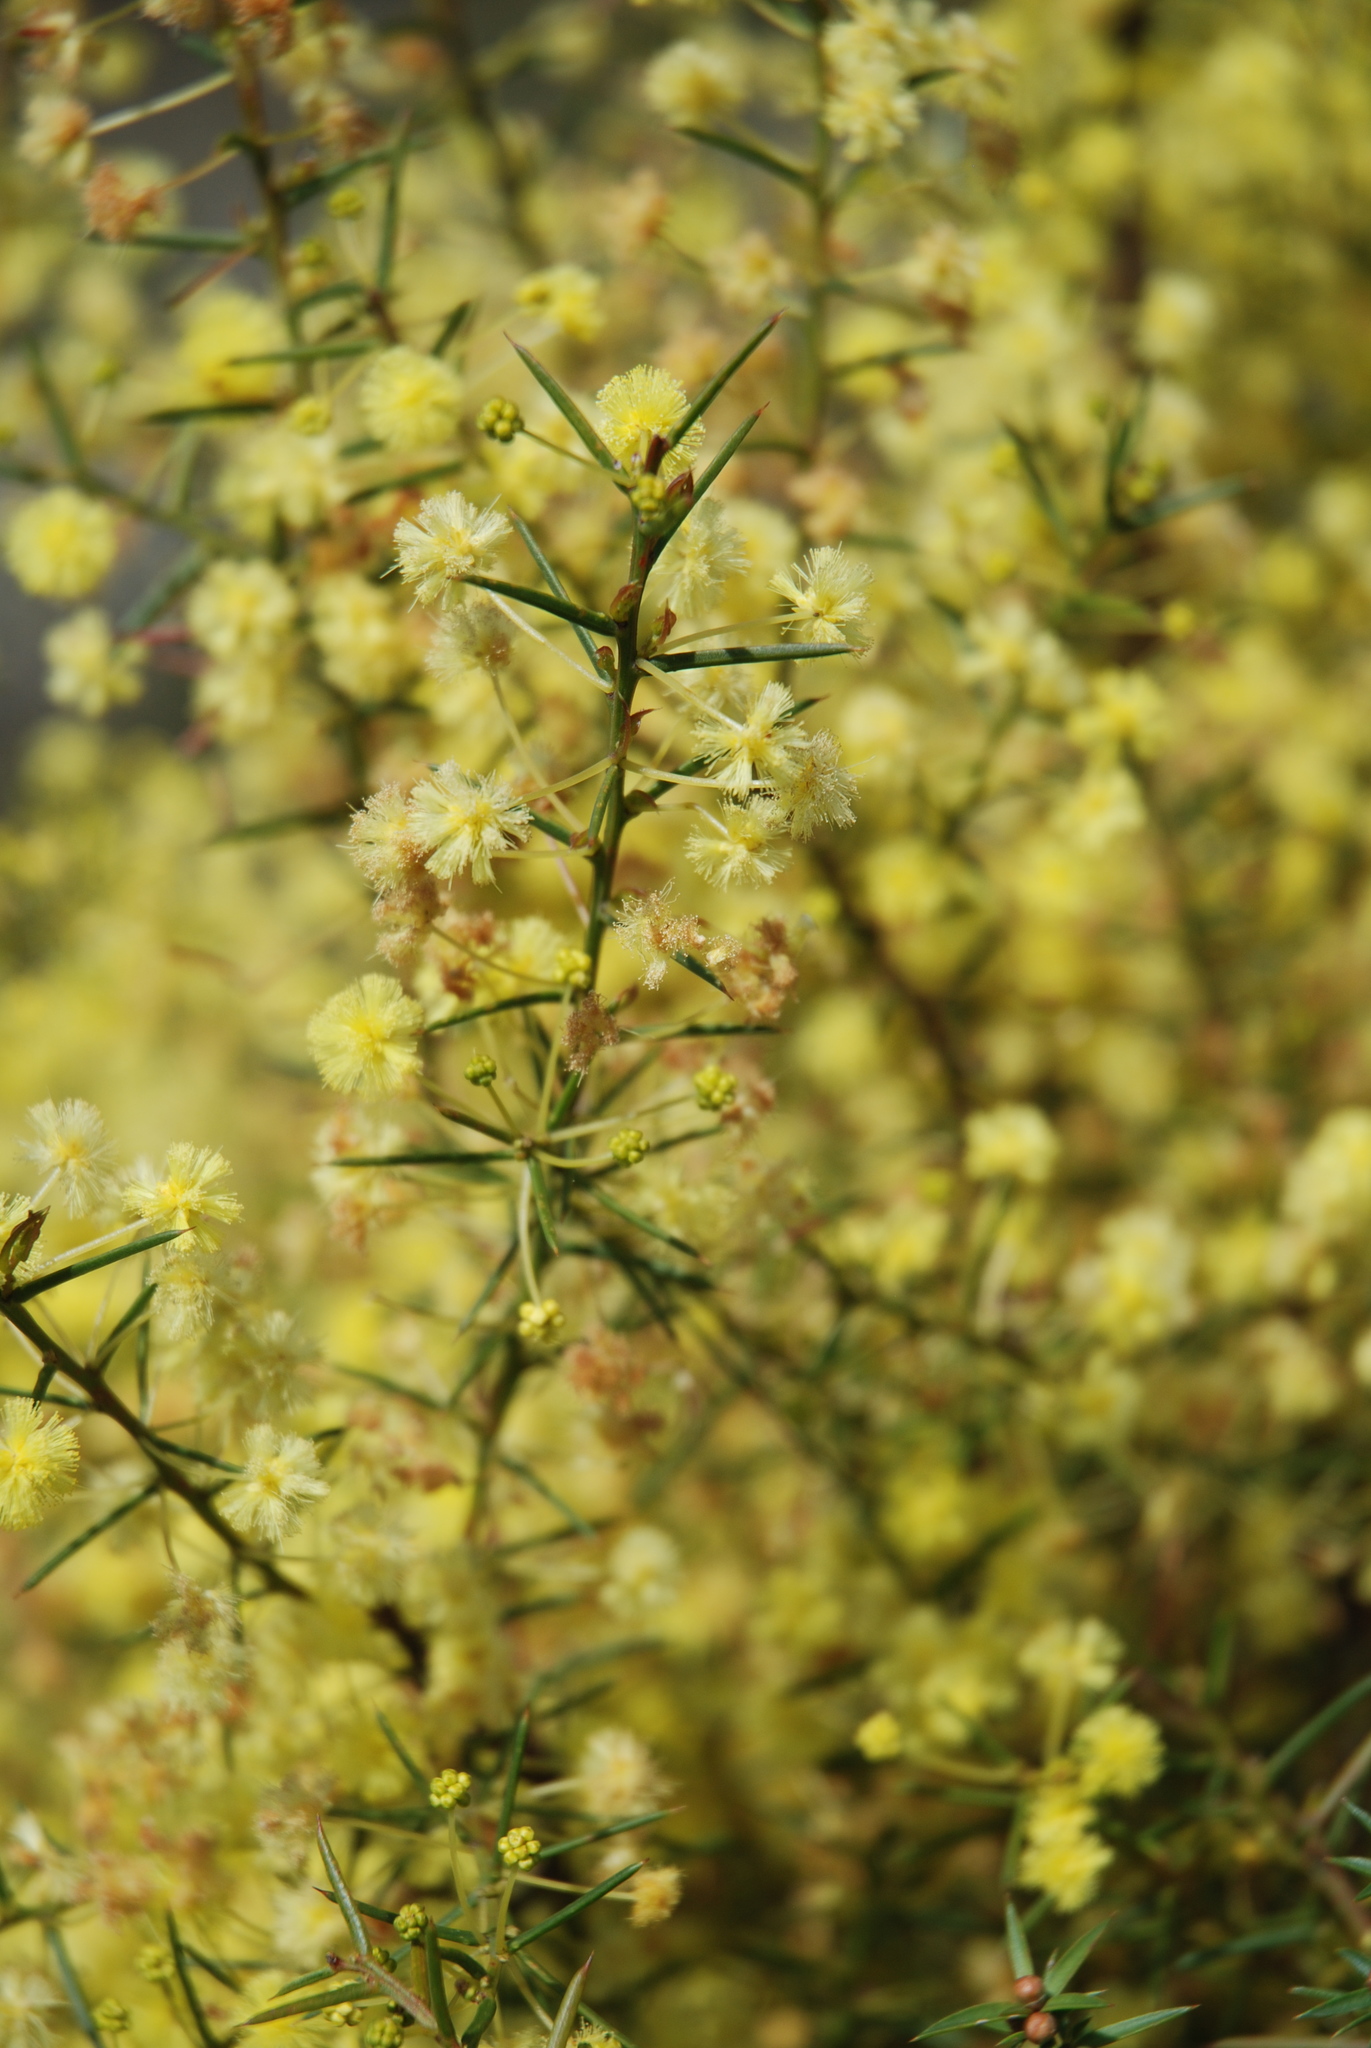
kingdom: Plantae
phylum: Tracheophyta
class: Magnoliopsida
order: Fabales
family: Fabaceae
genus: Acacia
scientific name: Acacia genistifolia
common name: Early wattle
